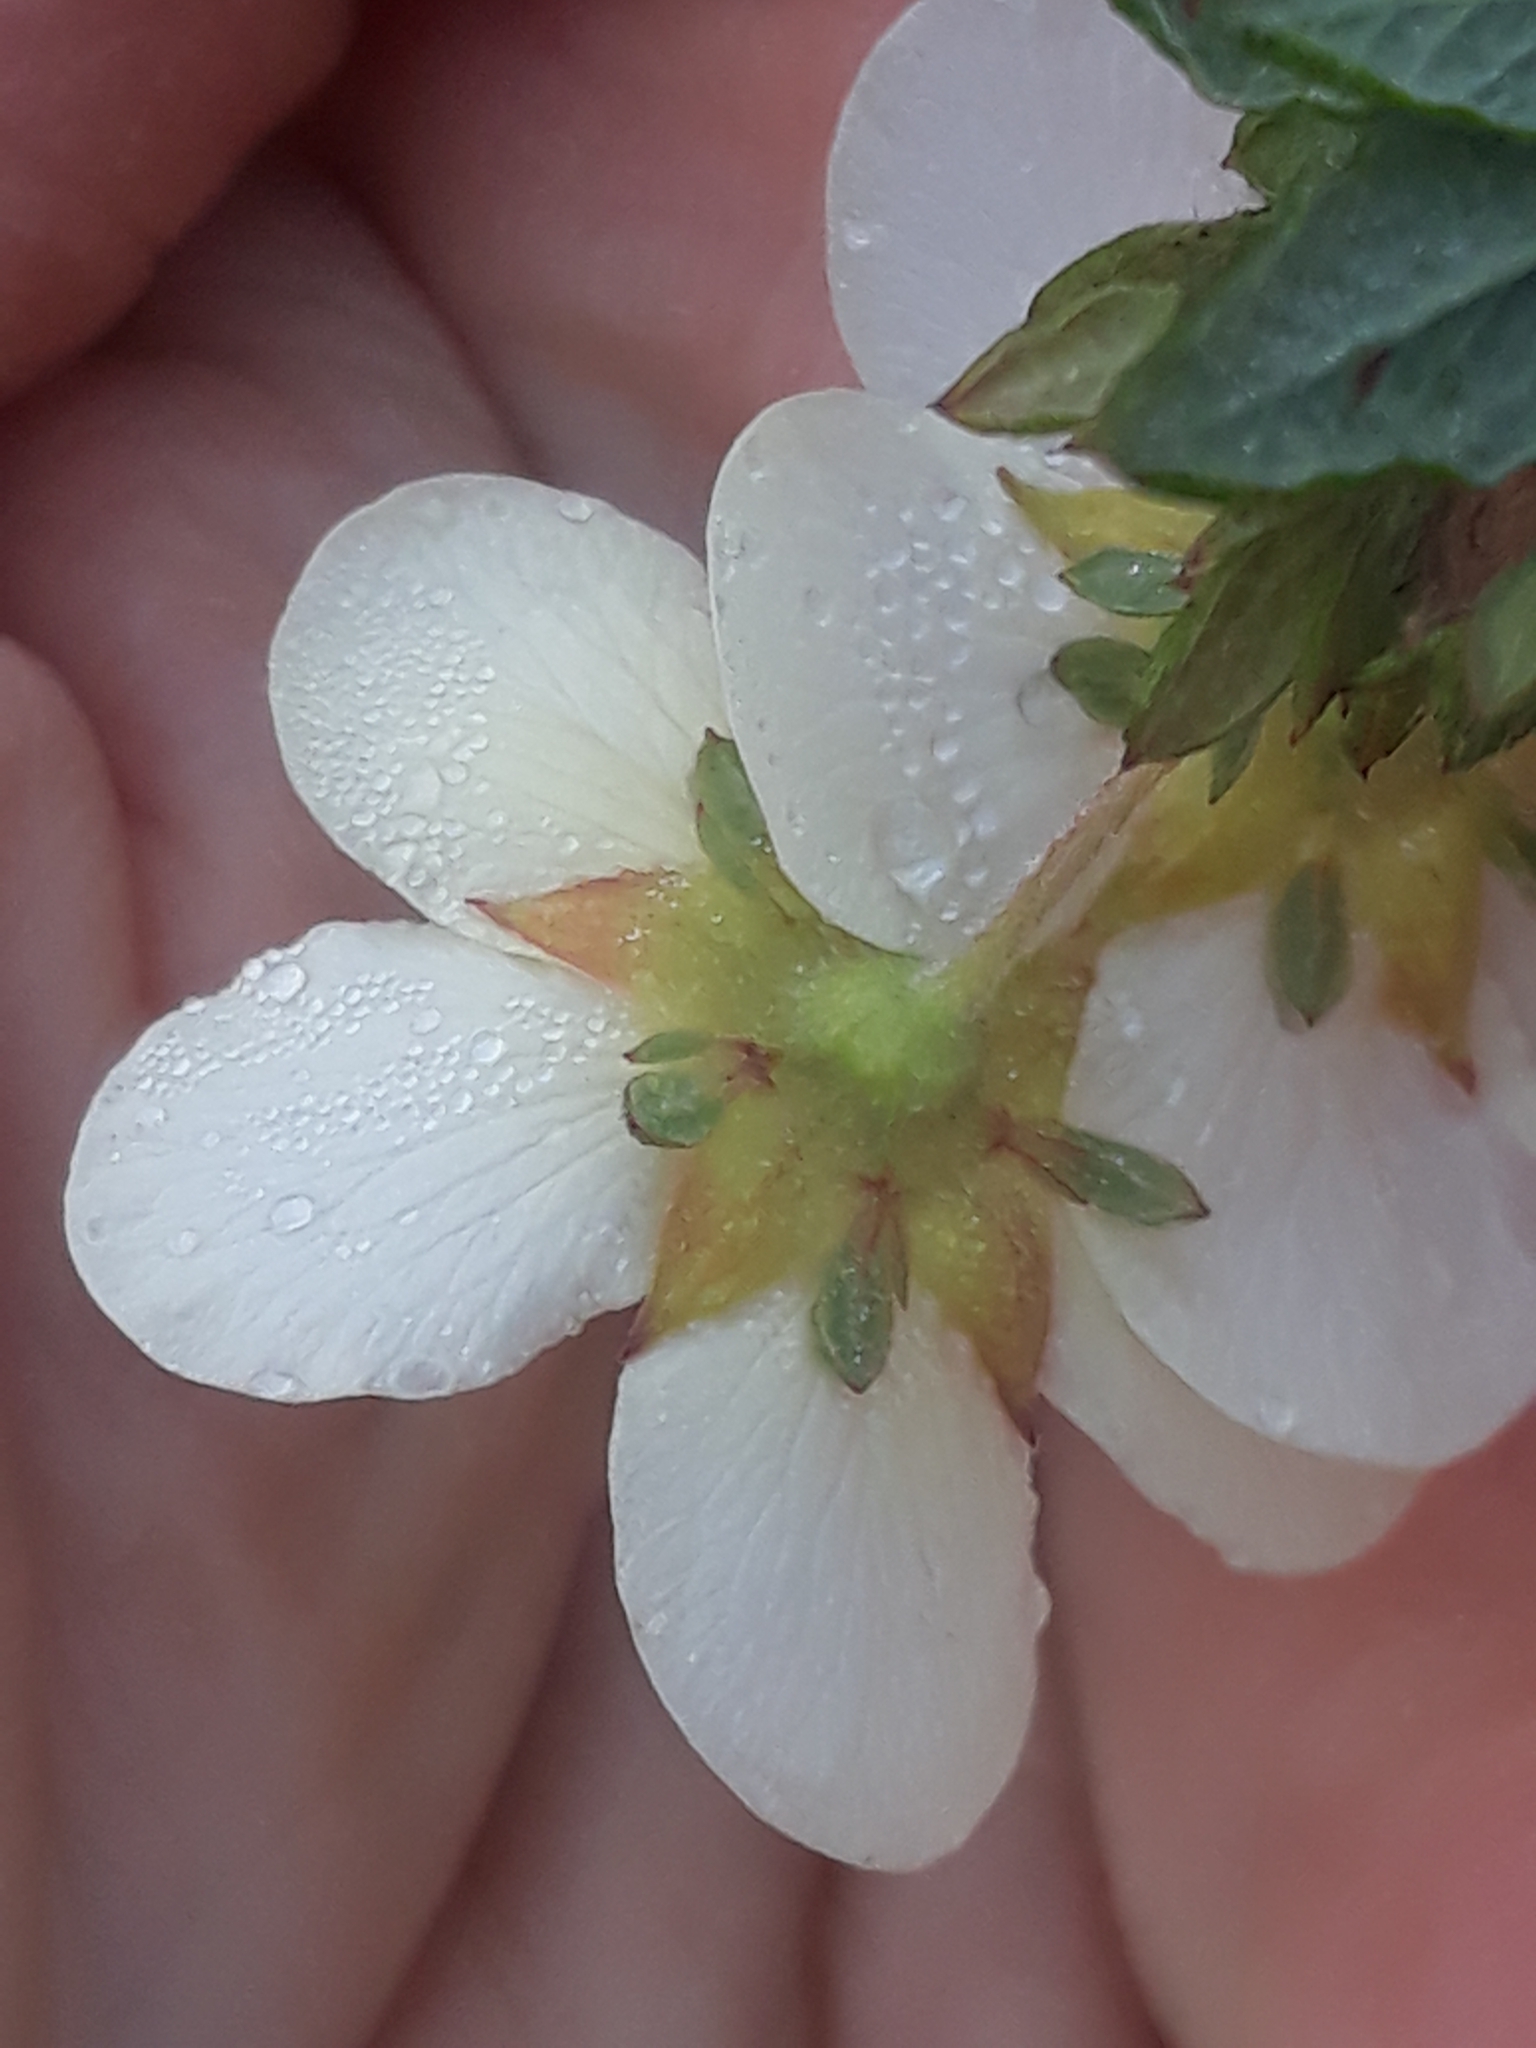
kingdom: Plantae
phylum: Tracheophyta
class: Magnoliopsida
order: Rosales
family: Rosaceae
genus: Dasiphora
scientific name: Dasiphora fruticosa
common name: Shrubby cinquefoil
